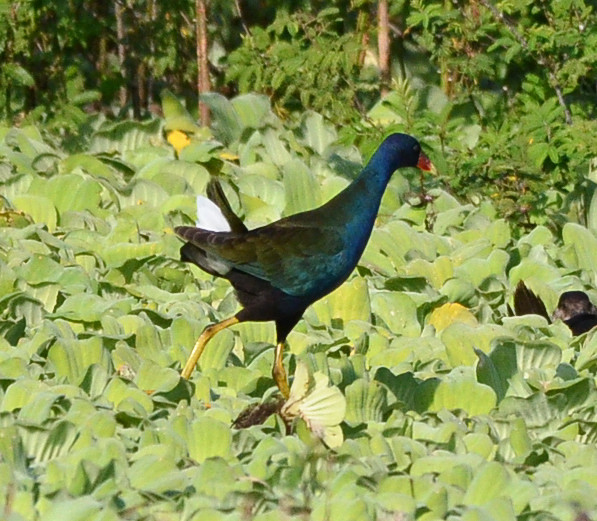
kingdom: Animalia
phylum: Chordata
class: Aves
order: Gruiformes
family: Rallidae
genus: Porphyrio
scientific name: Porphyrio martinica
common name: Purple gallinule
